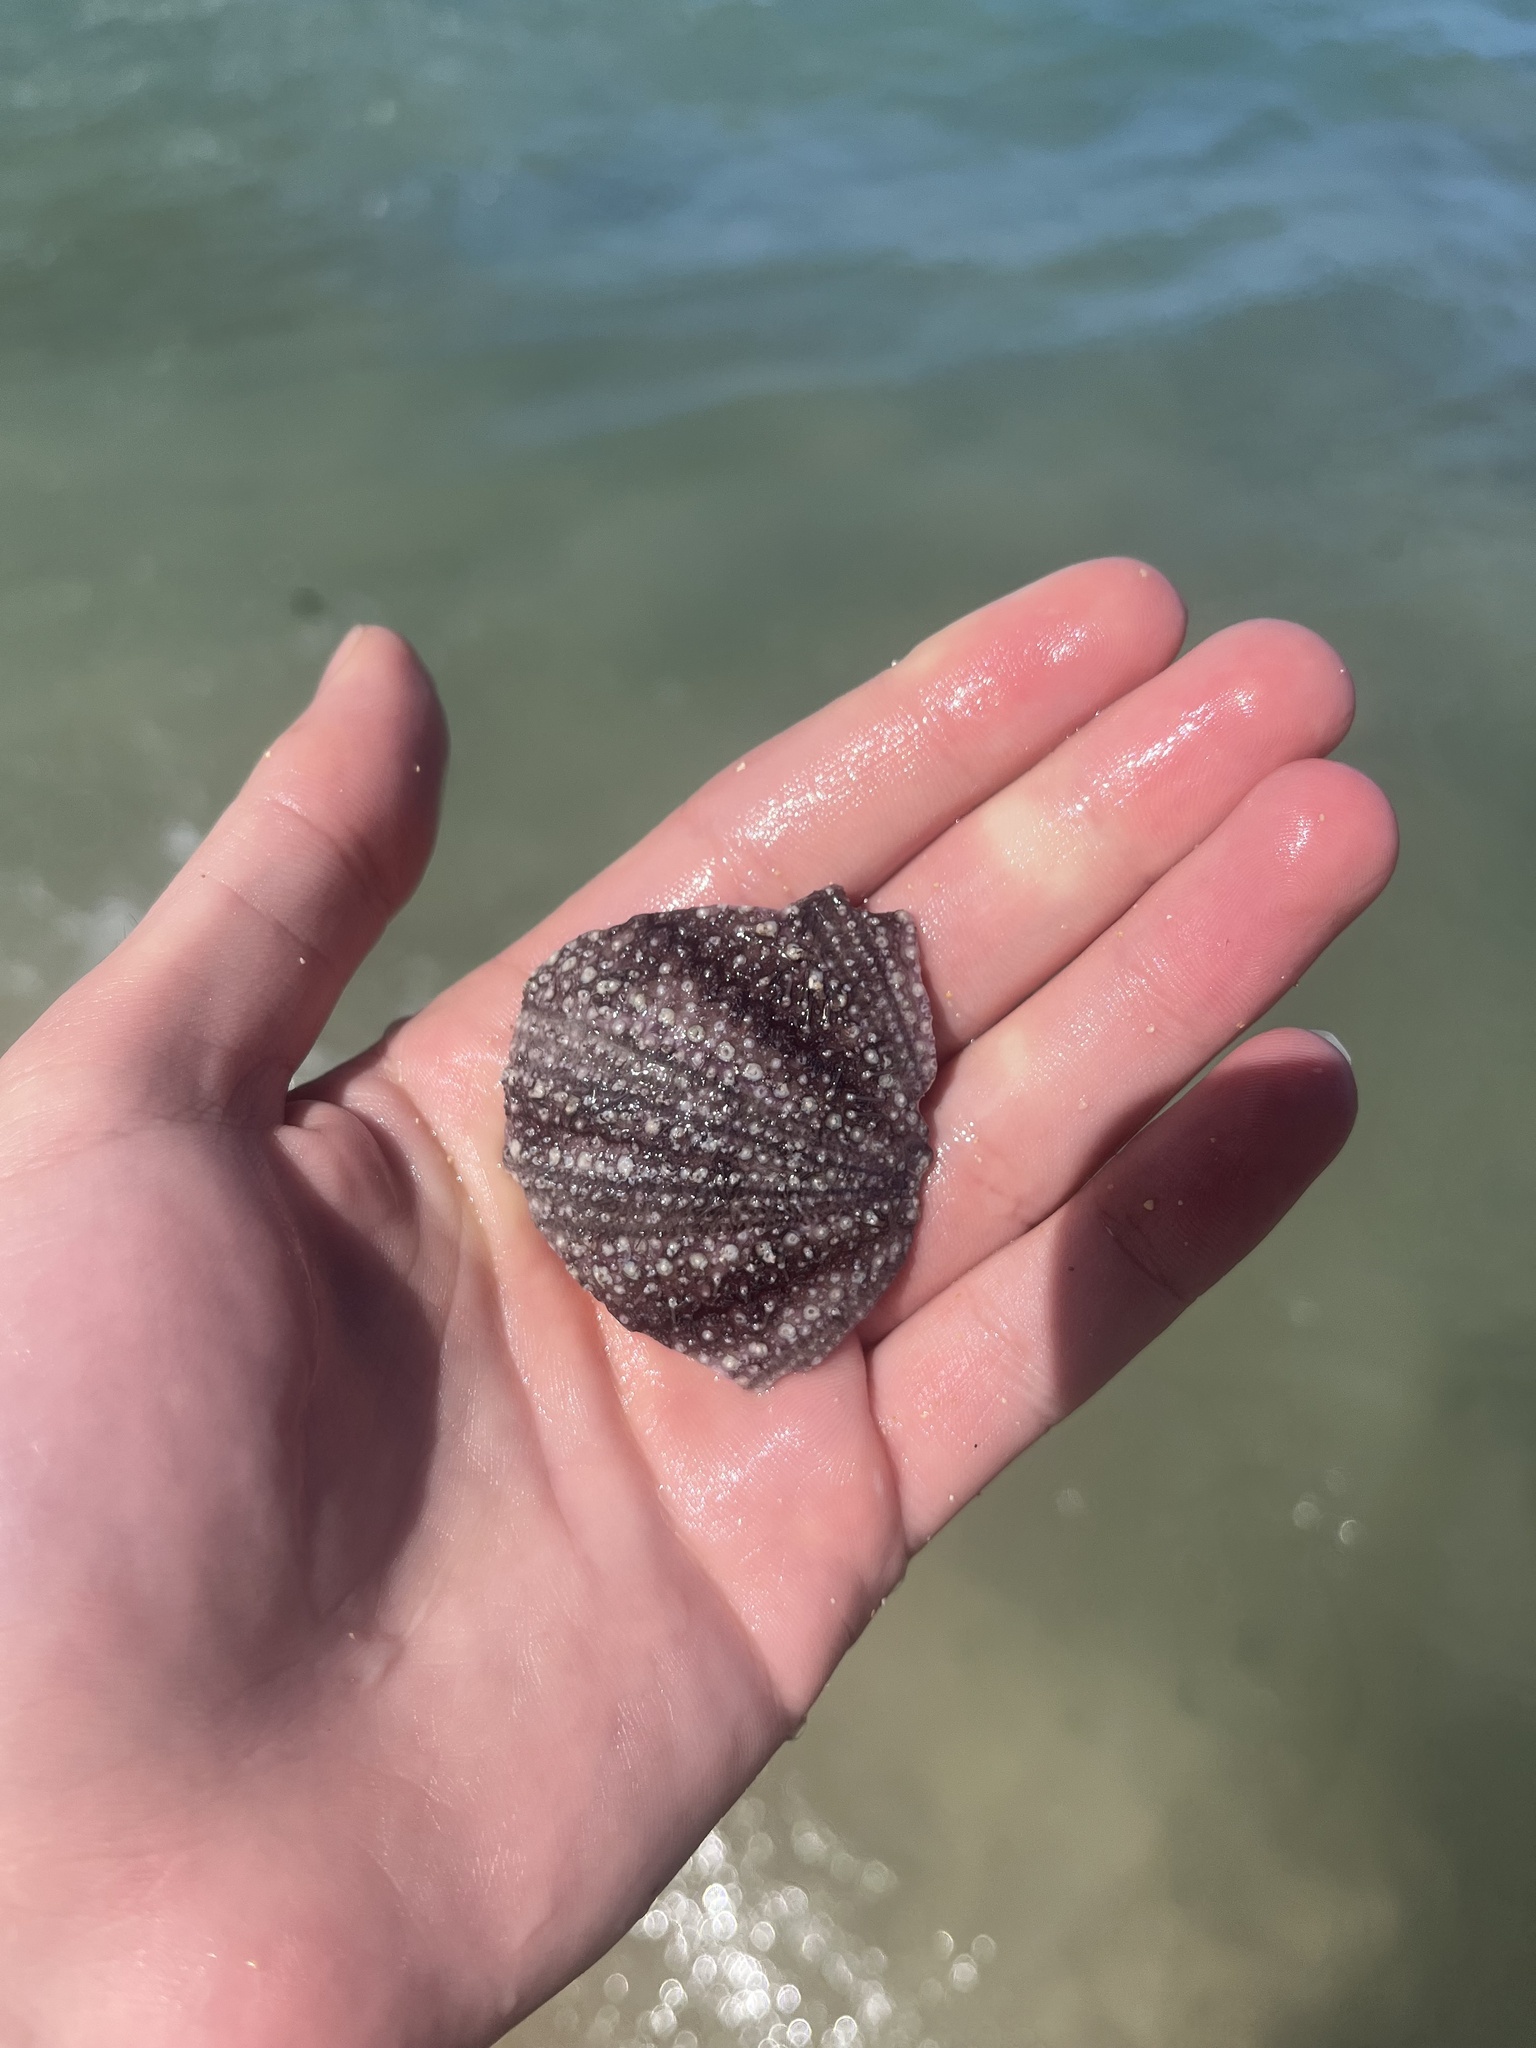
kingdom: Animalia
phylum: Echinodermata
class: Echinoidea
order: Camarodonta
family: Toxopneustidae
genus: Tripneustes
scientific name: Tripneustes gratilla
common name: Bischofsmützenseeigel
